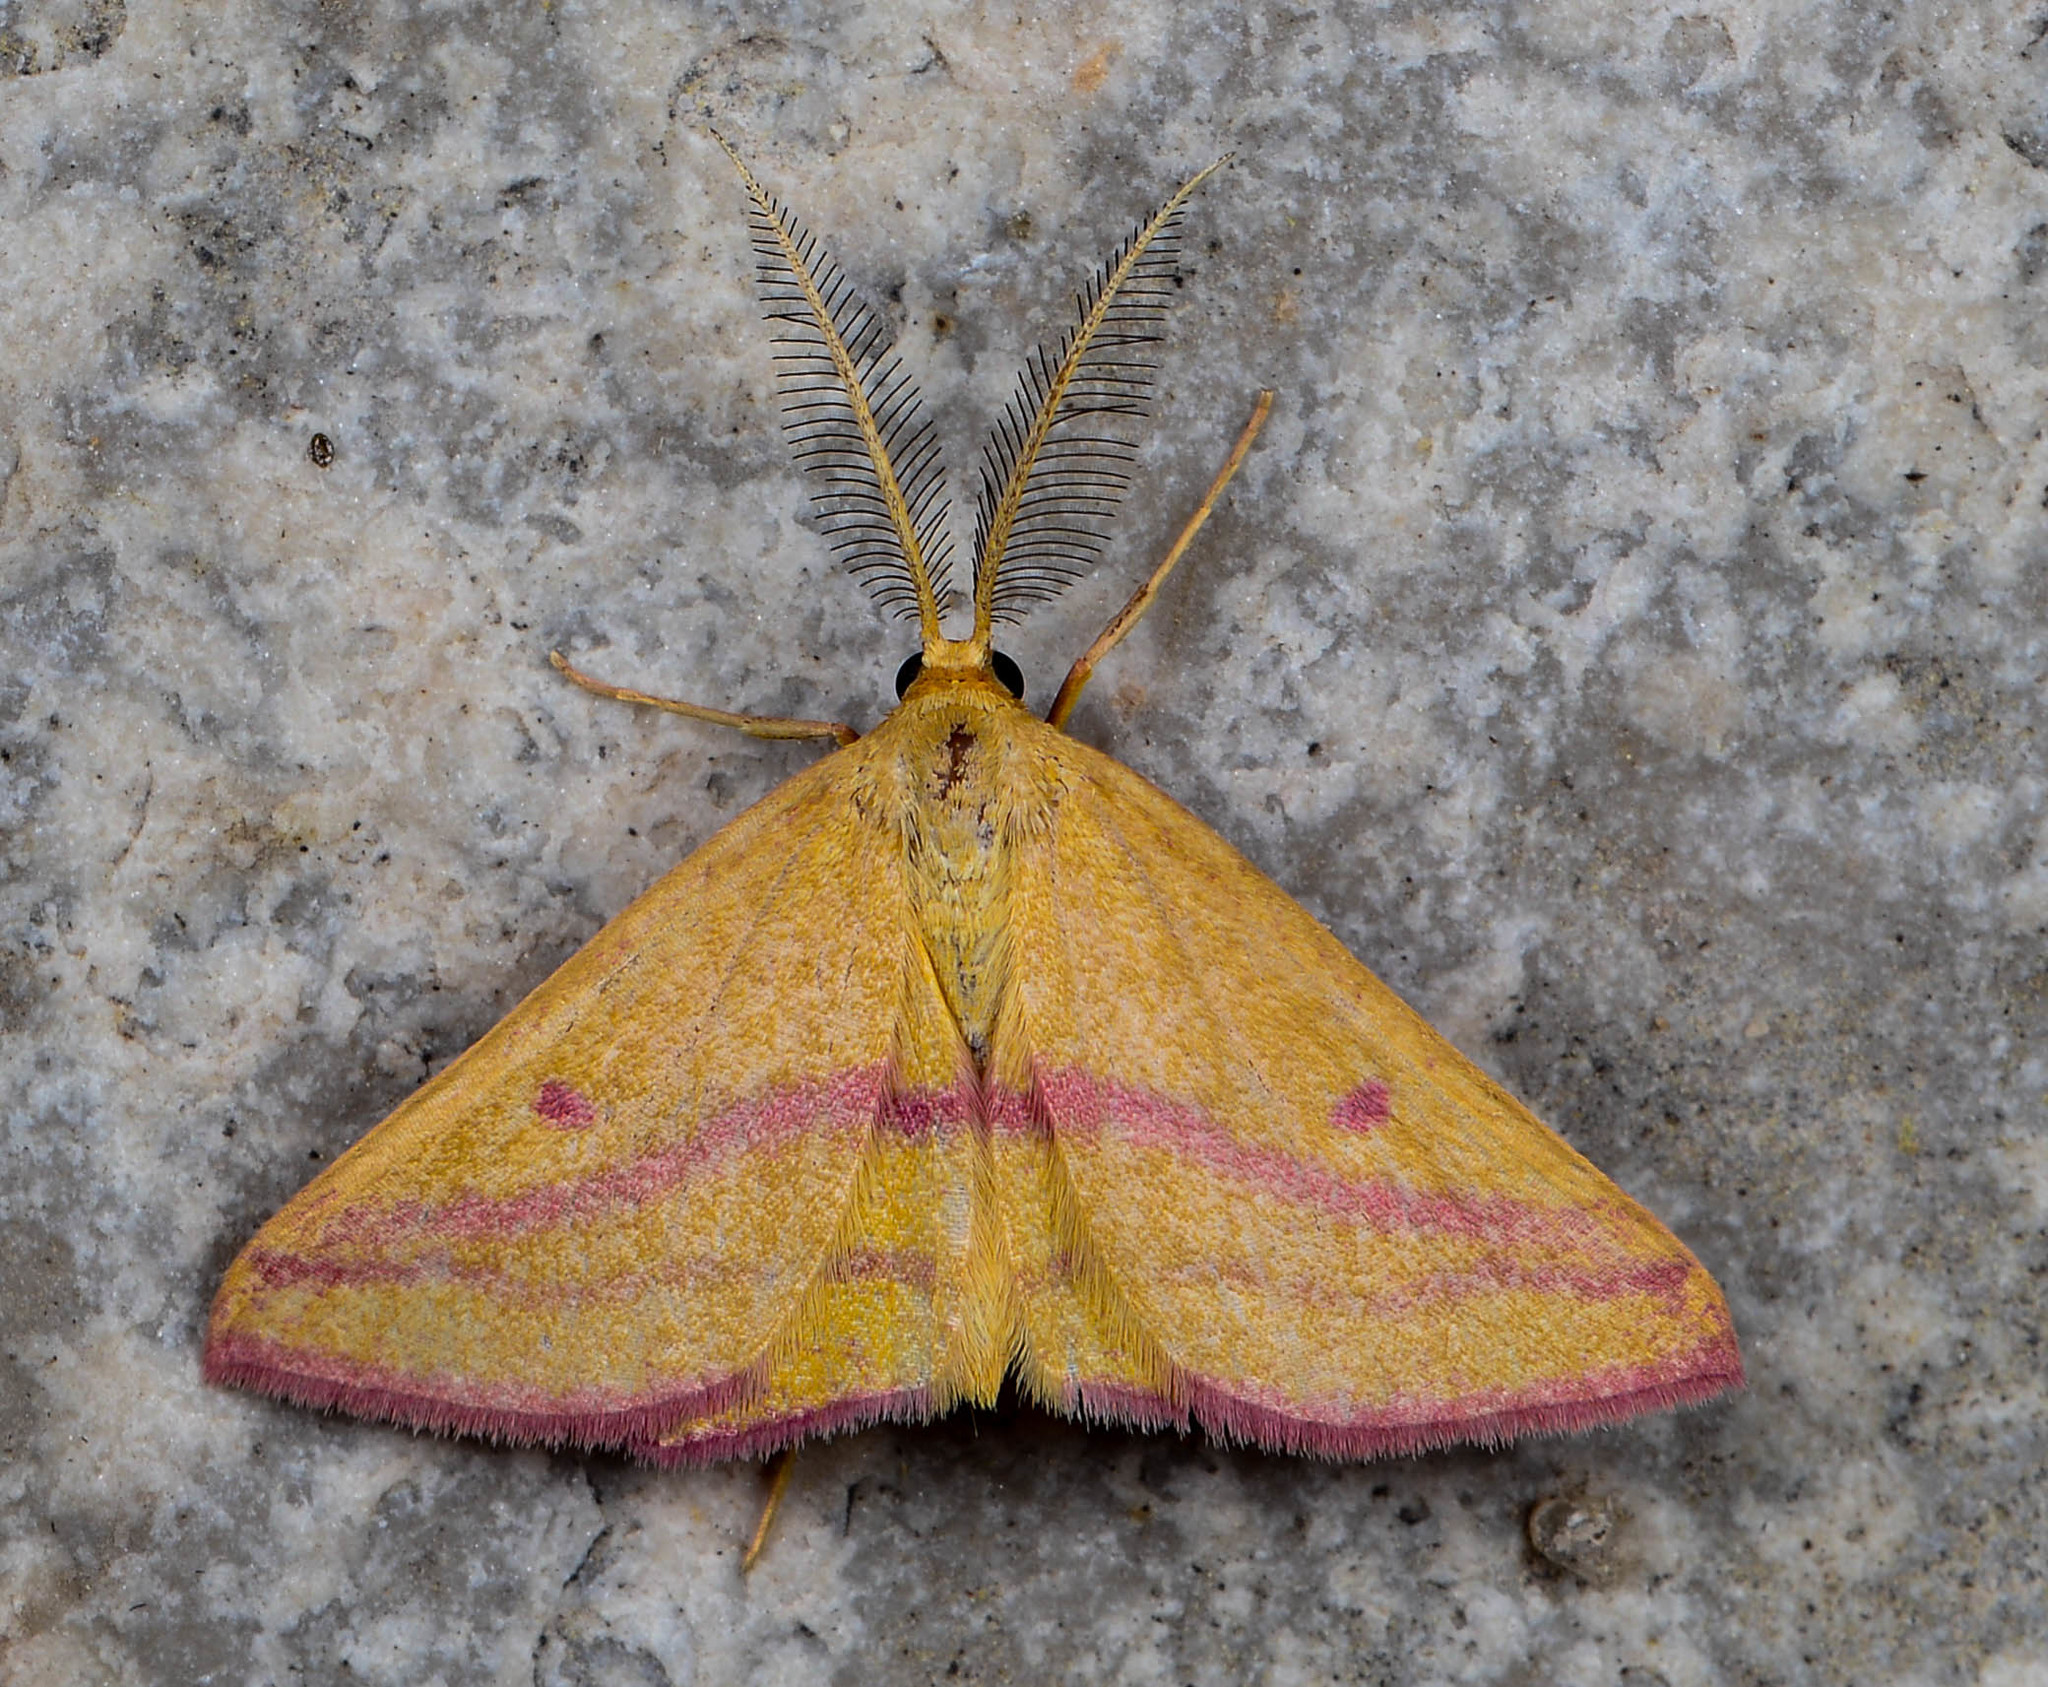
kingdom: Animalia
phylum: Arthropoda
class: Insecta
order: Lepidoptera
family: Geometridae
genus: Haematopis
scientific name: Haematopis grataria
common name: Chickweed geometer
